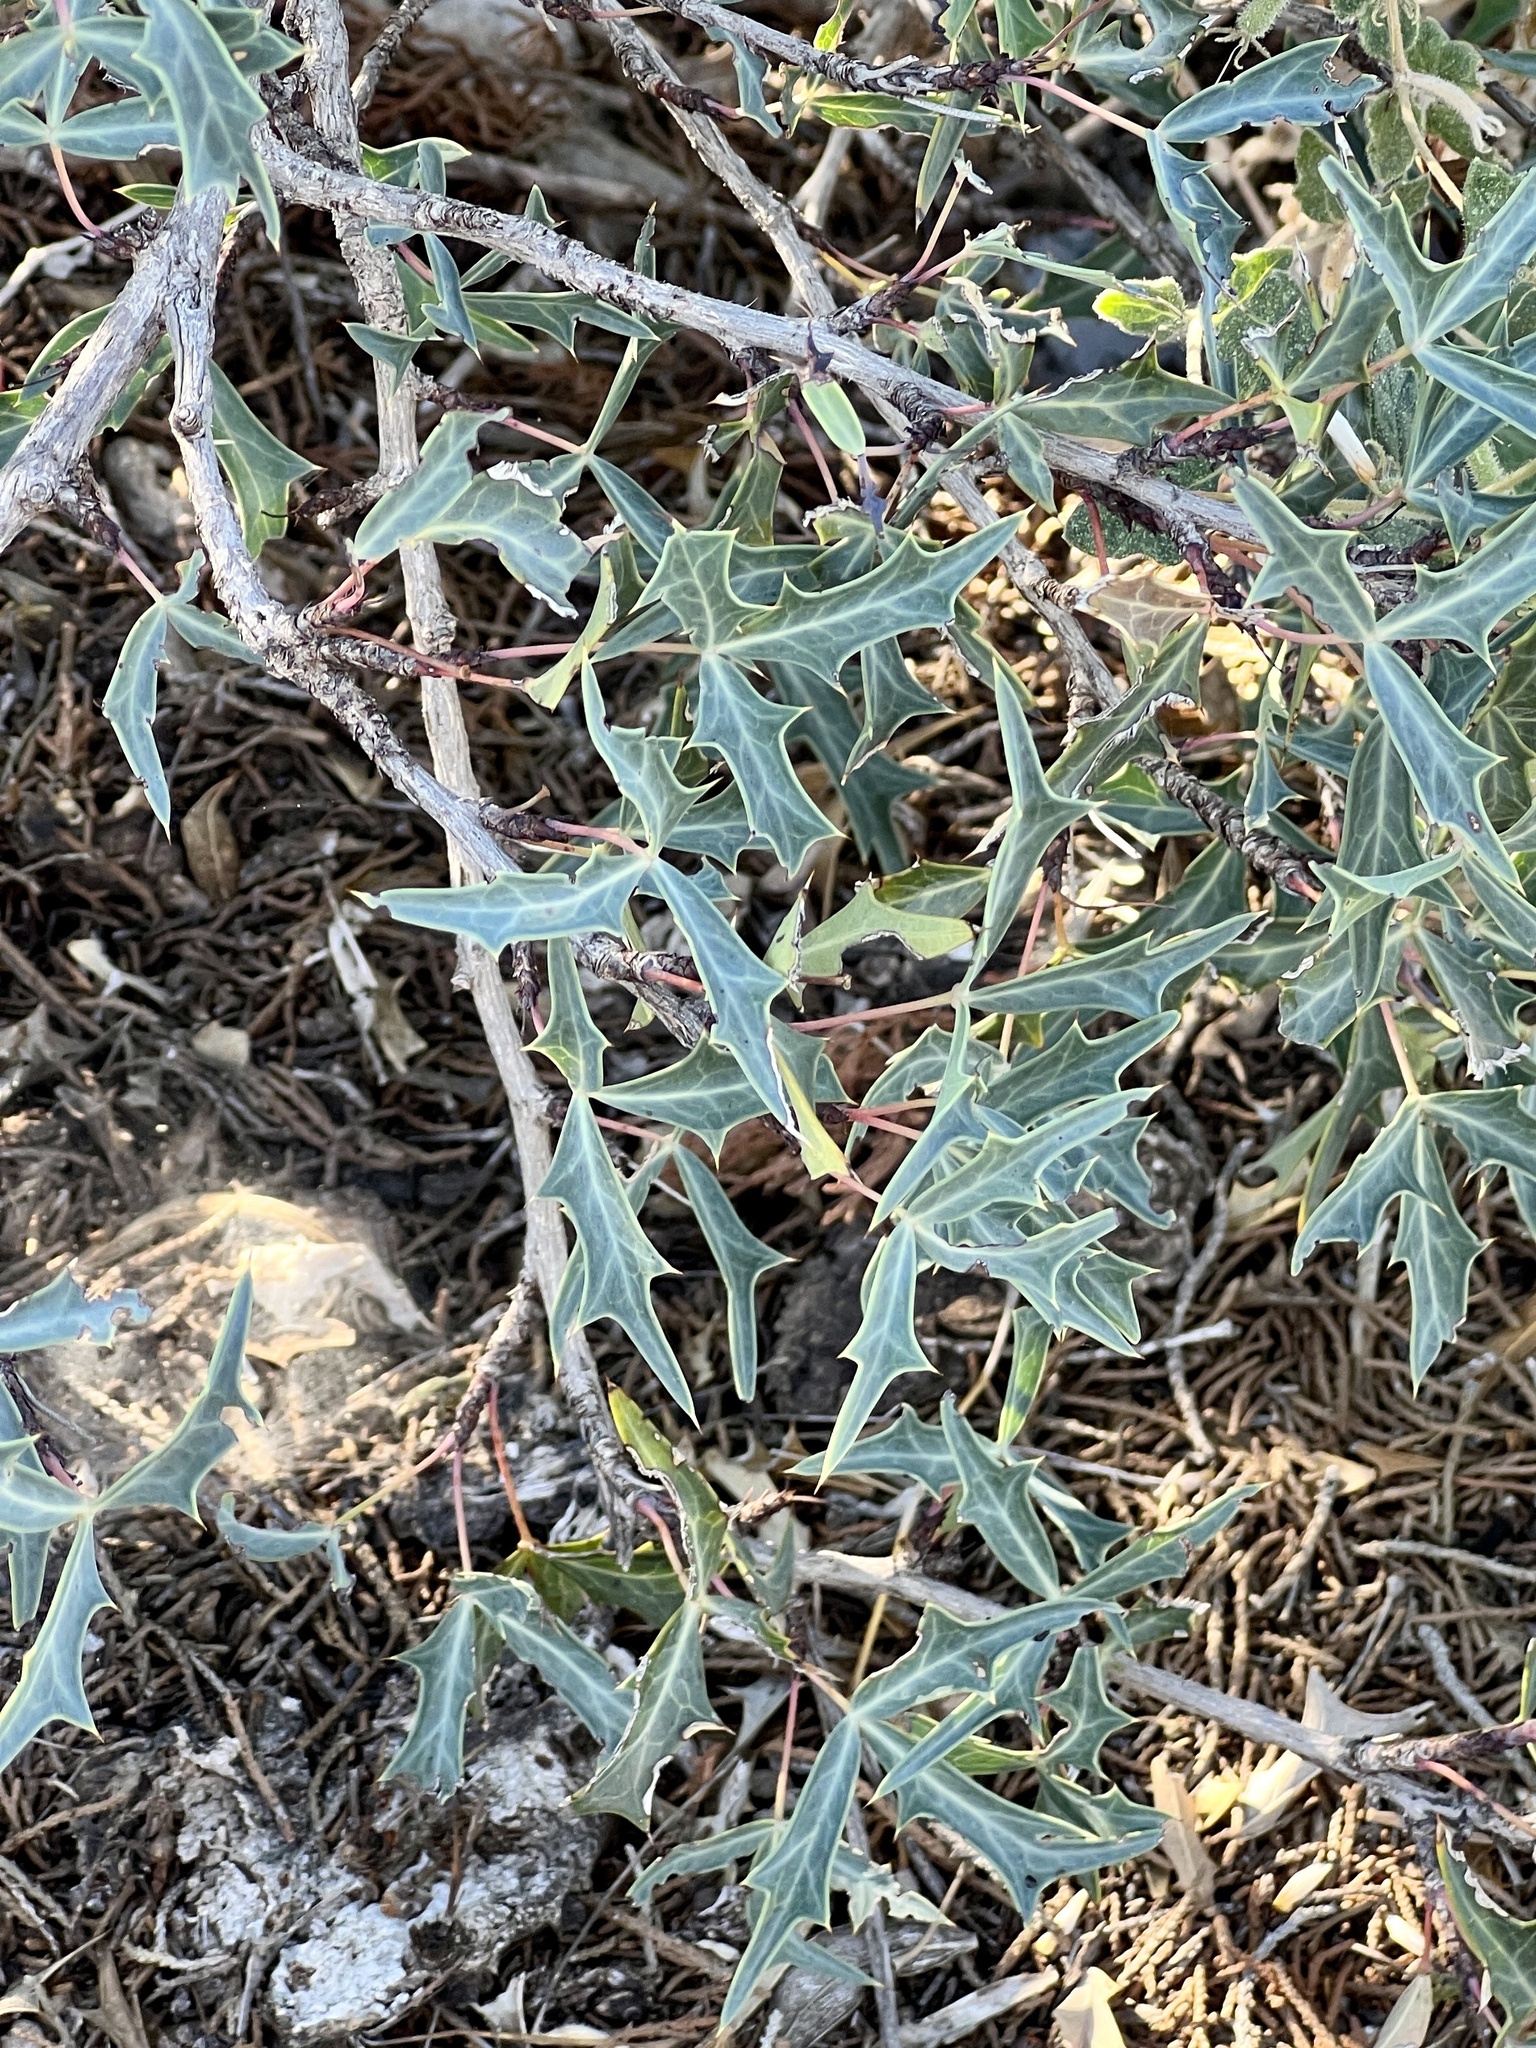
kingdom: Plantae
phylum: Tracheophyta
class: Magnoliopsida
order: Ranunculales
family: Berberidaceae
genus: Alloberberis
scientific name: Alloberberis trifoliolata
